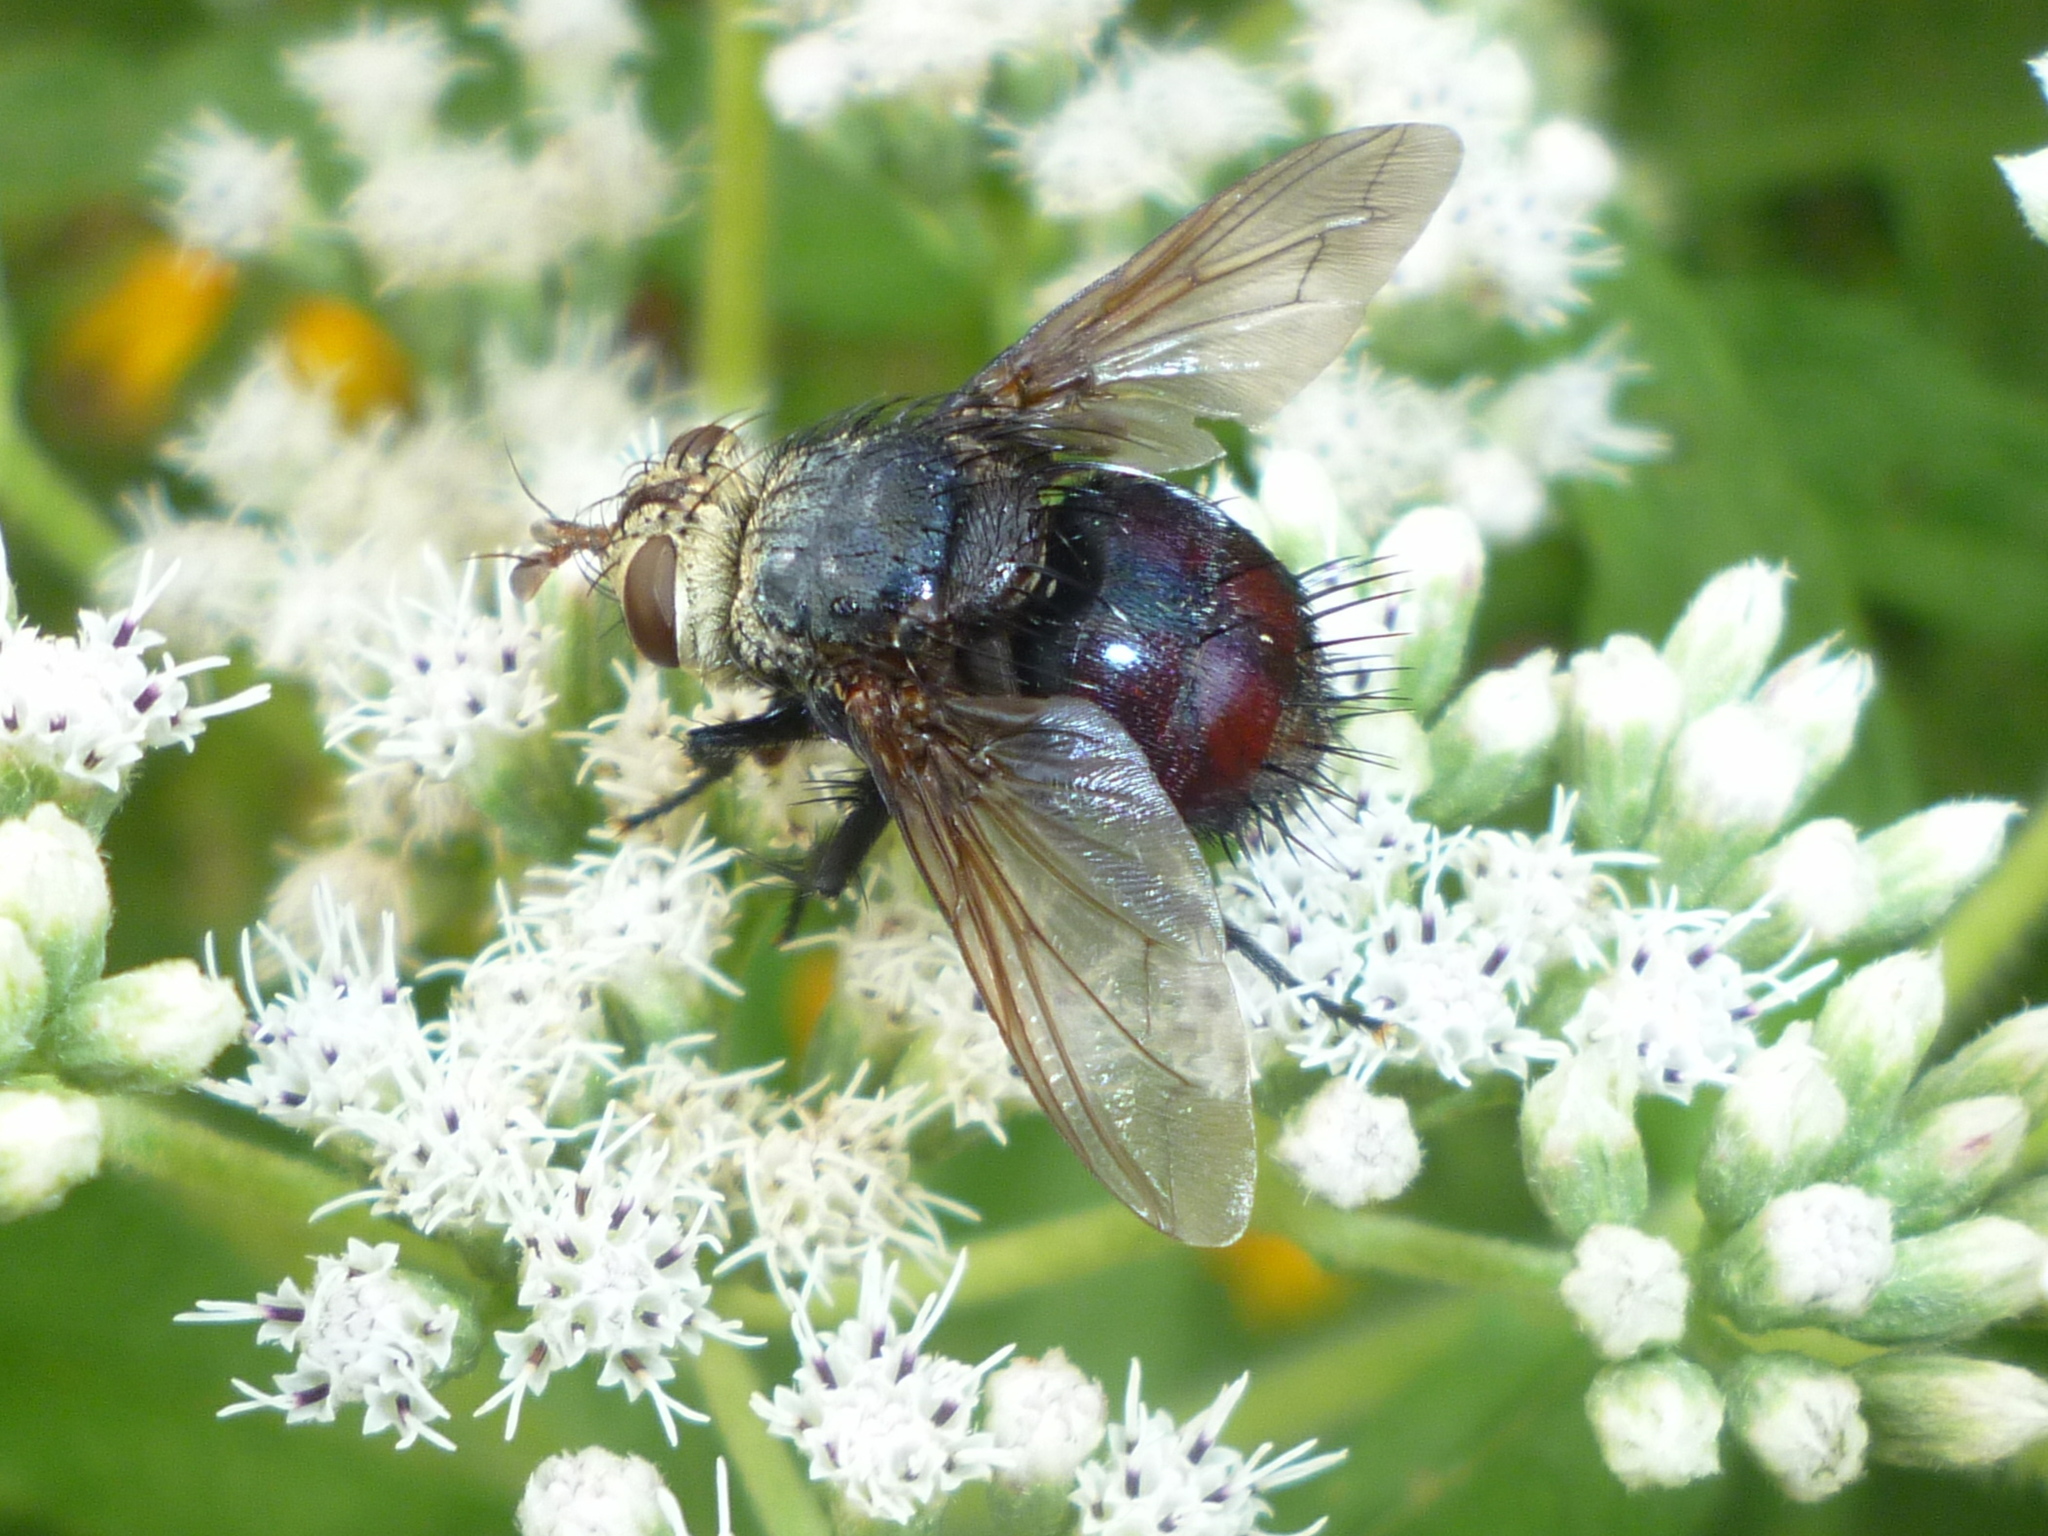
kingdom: Animalia
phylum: Arthropoda
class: Insecta
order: Diptera
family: Tachinidae
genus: Archytas
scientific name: Archytas metallicus
